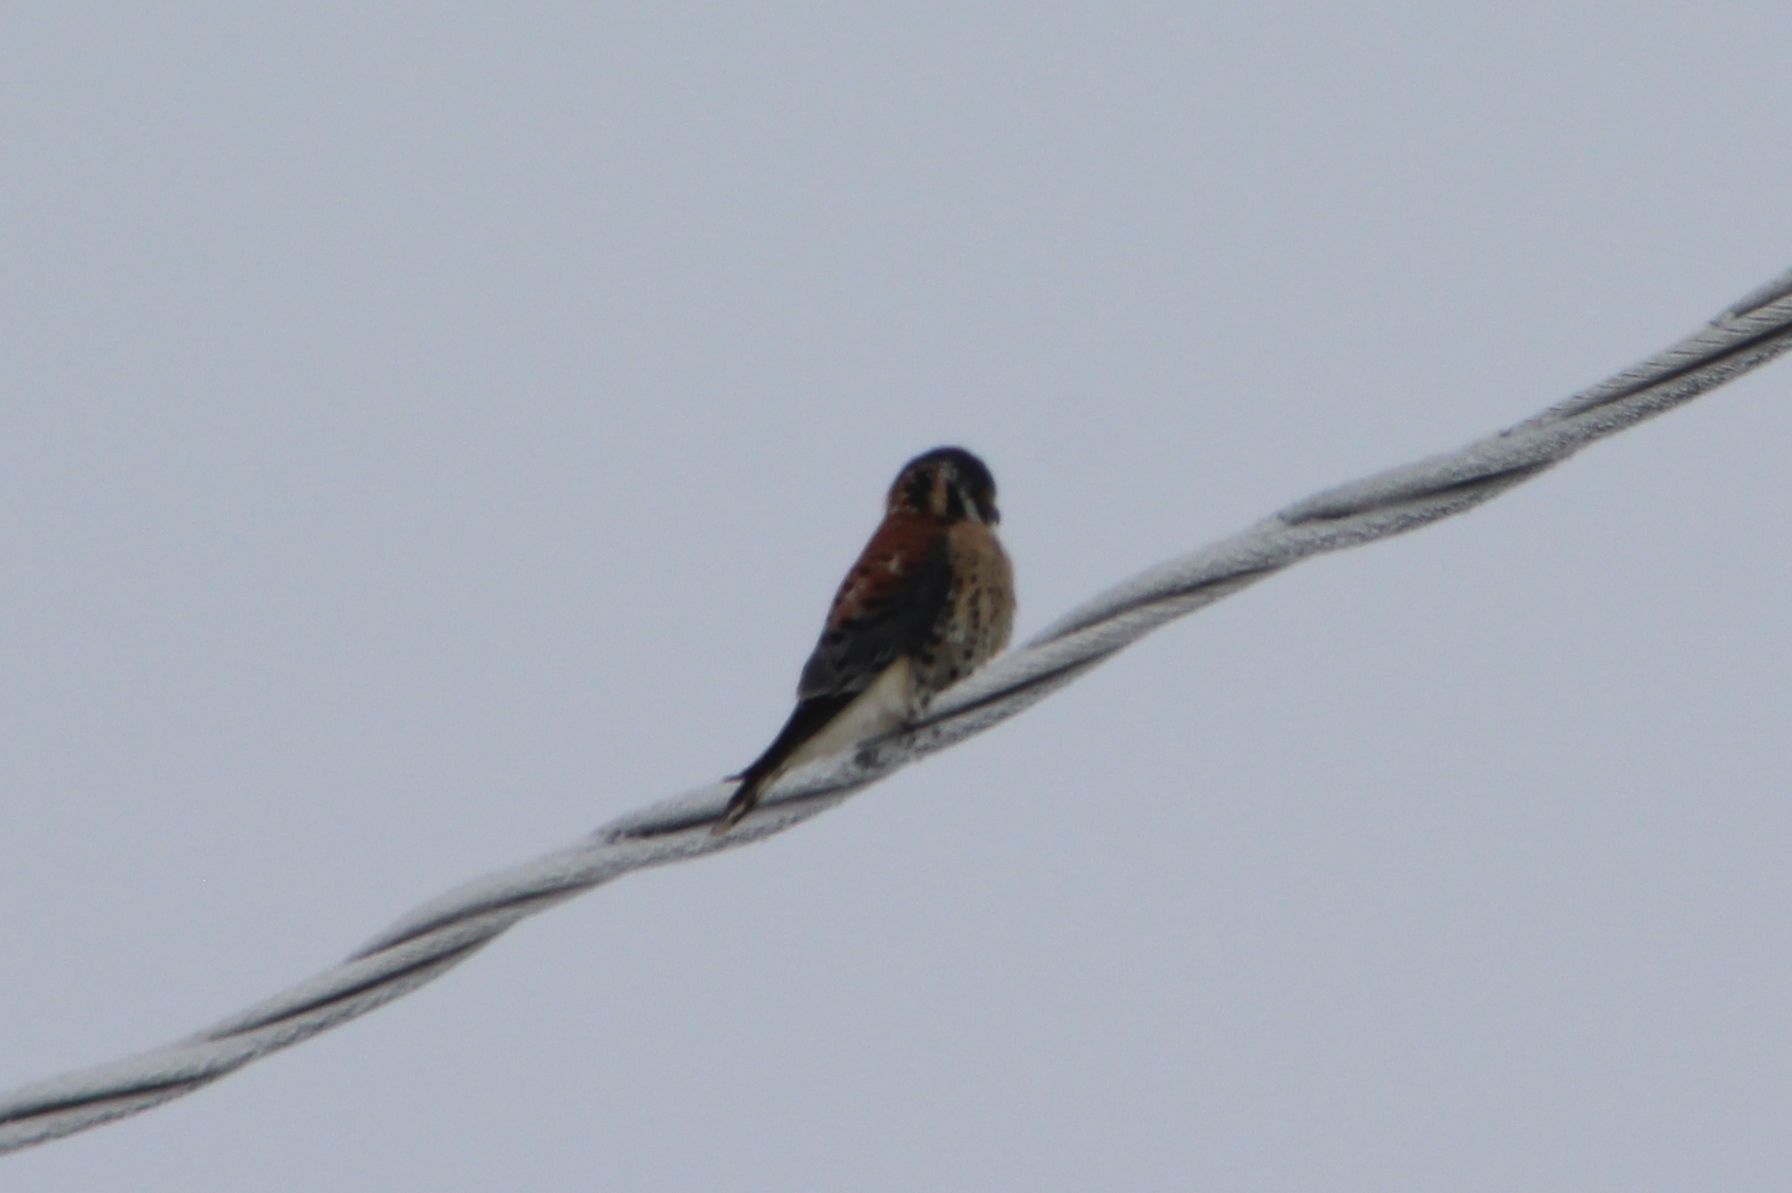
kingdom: Animalia
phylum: Chordata
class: Aves
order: Falconiformes
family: Falconidae
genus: Falco
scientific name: Falco sparverius
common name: American kestrel
